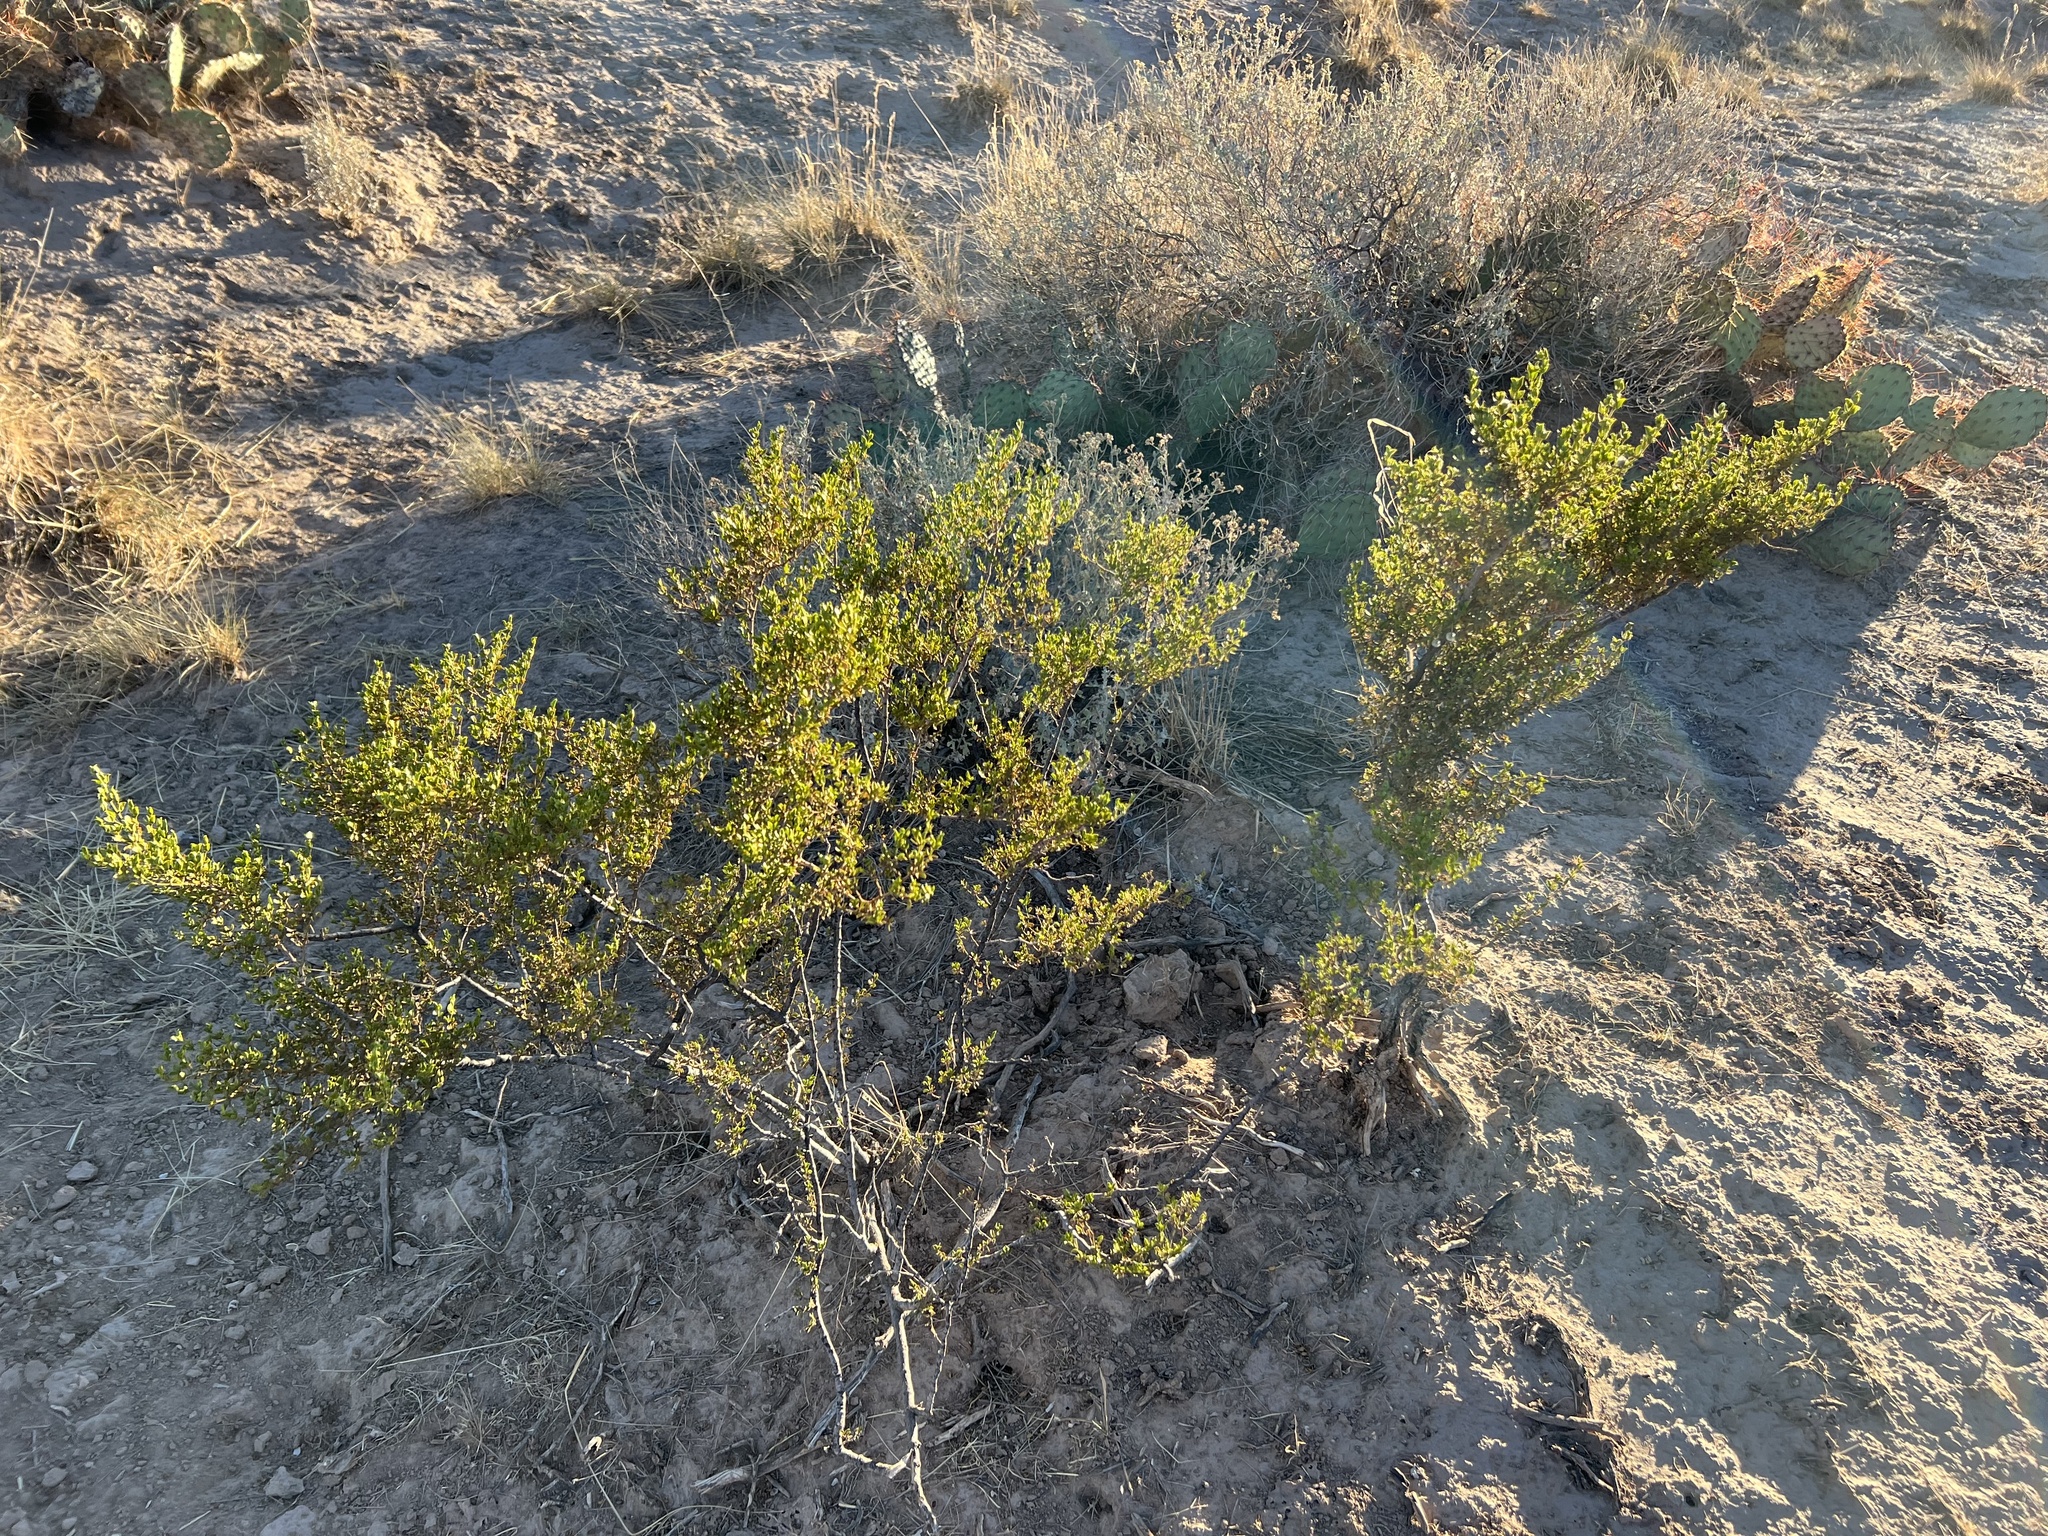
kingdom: Plantae
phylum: Tracheophyta
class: Magnoliopsida
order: Zygophyllales
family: Zygophyllaceae
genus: Larrea
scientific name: Larrea tridentata
